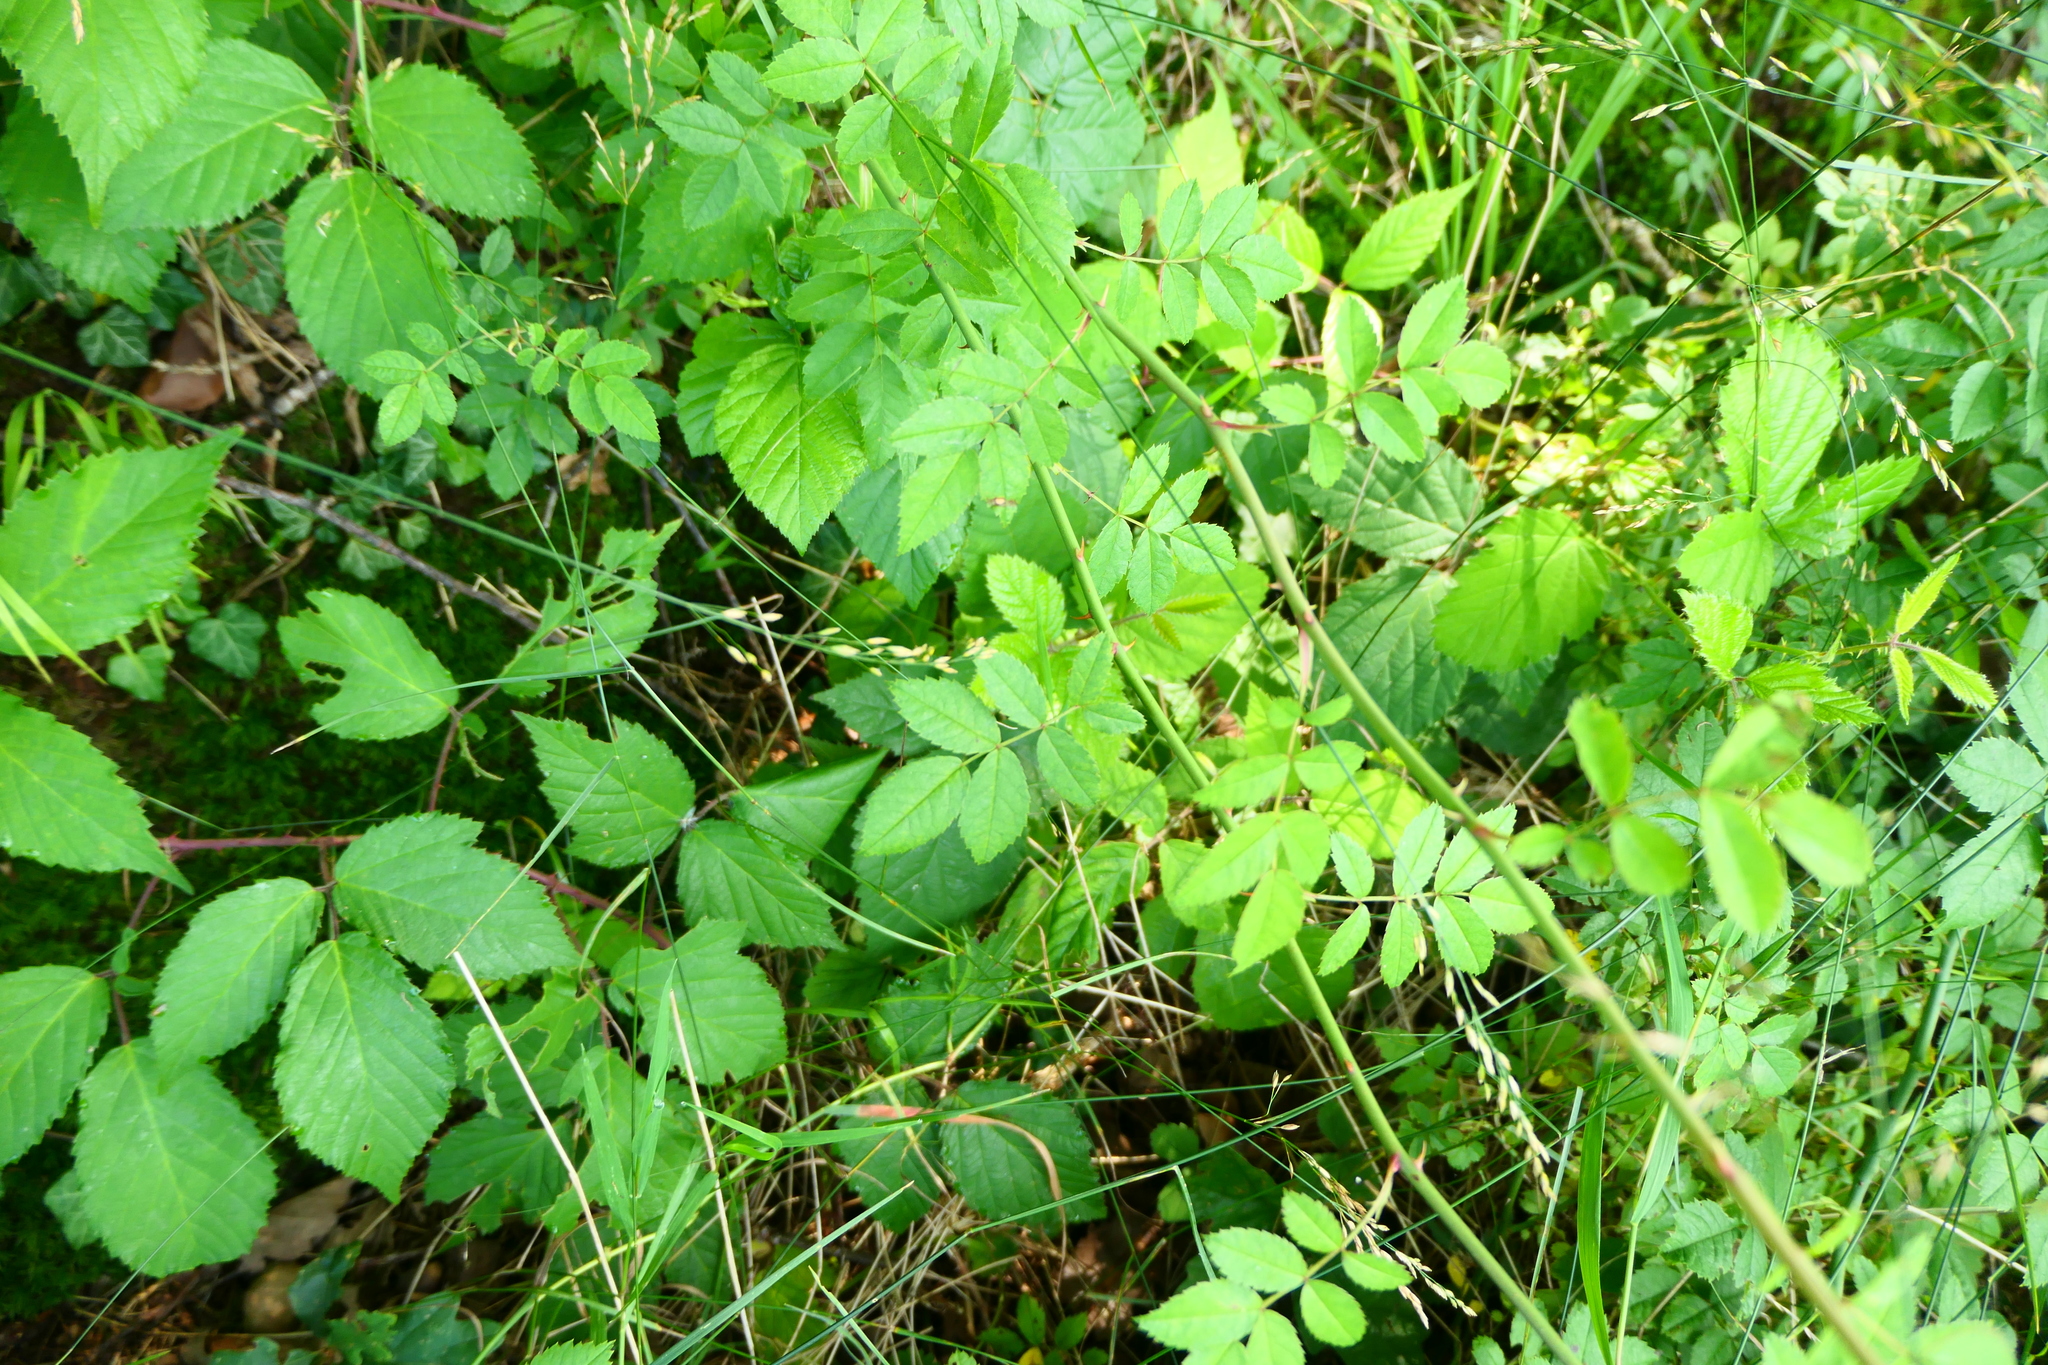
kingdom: Plantae
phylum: Tracheophyta
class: Magnoliopsida
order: Rosales
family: Rosaceae
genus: Rosa
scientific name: Rosa arvensis
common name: Field rose
